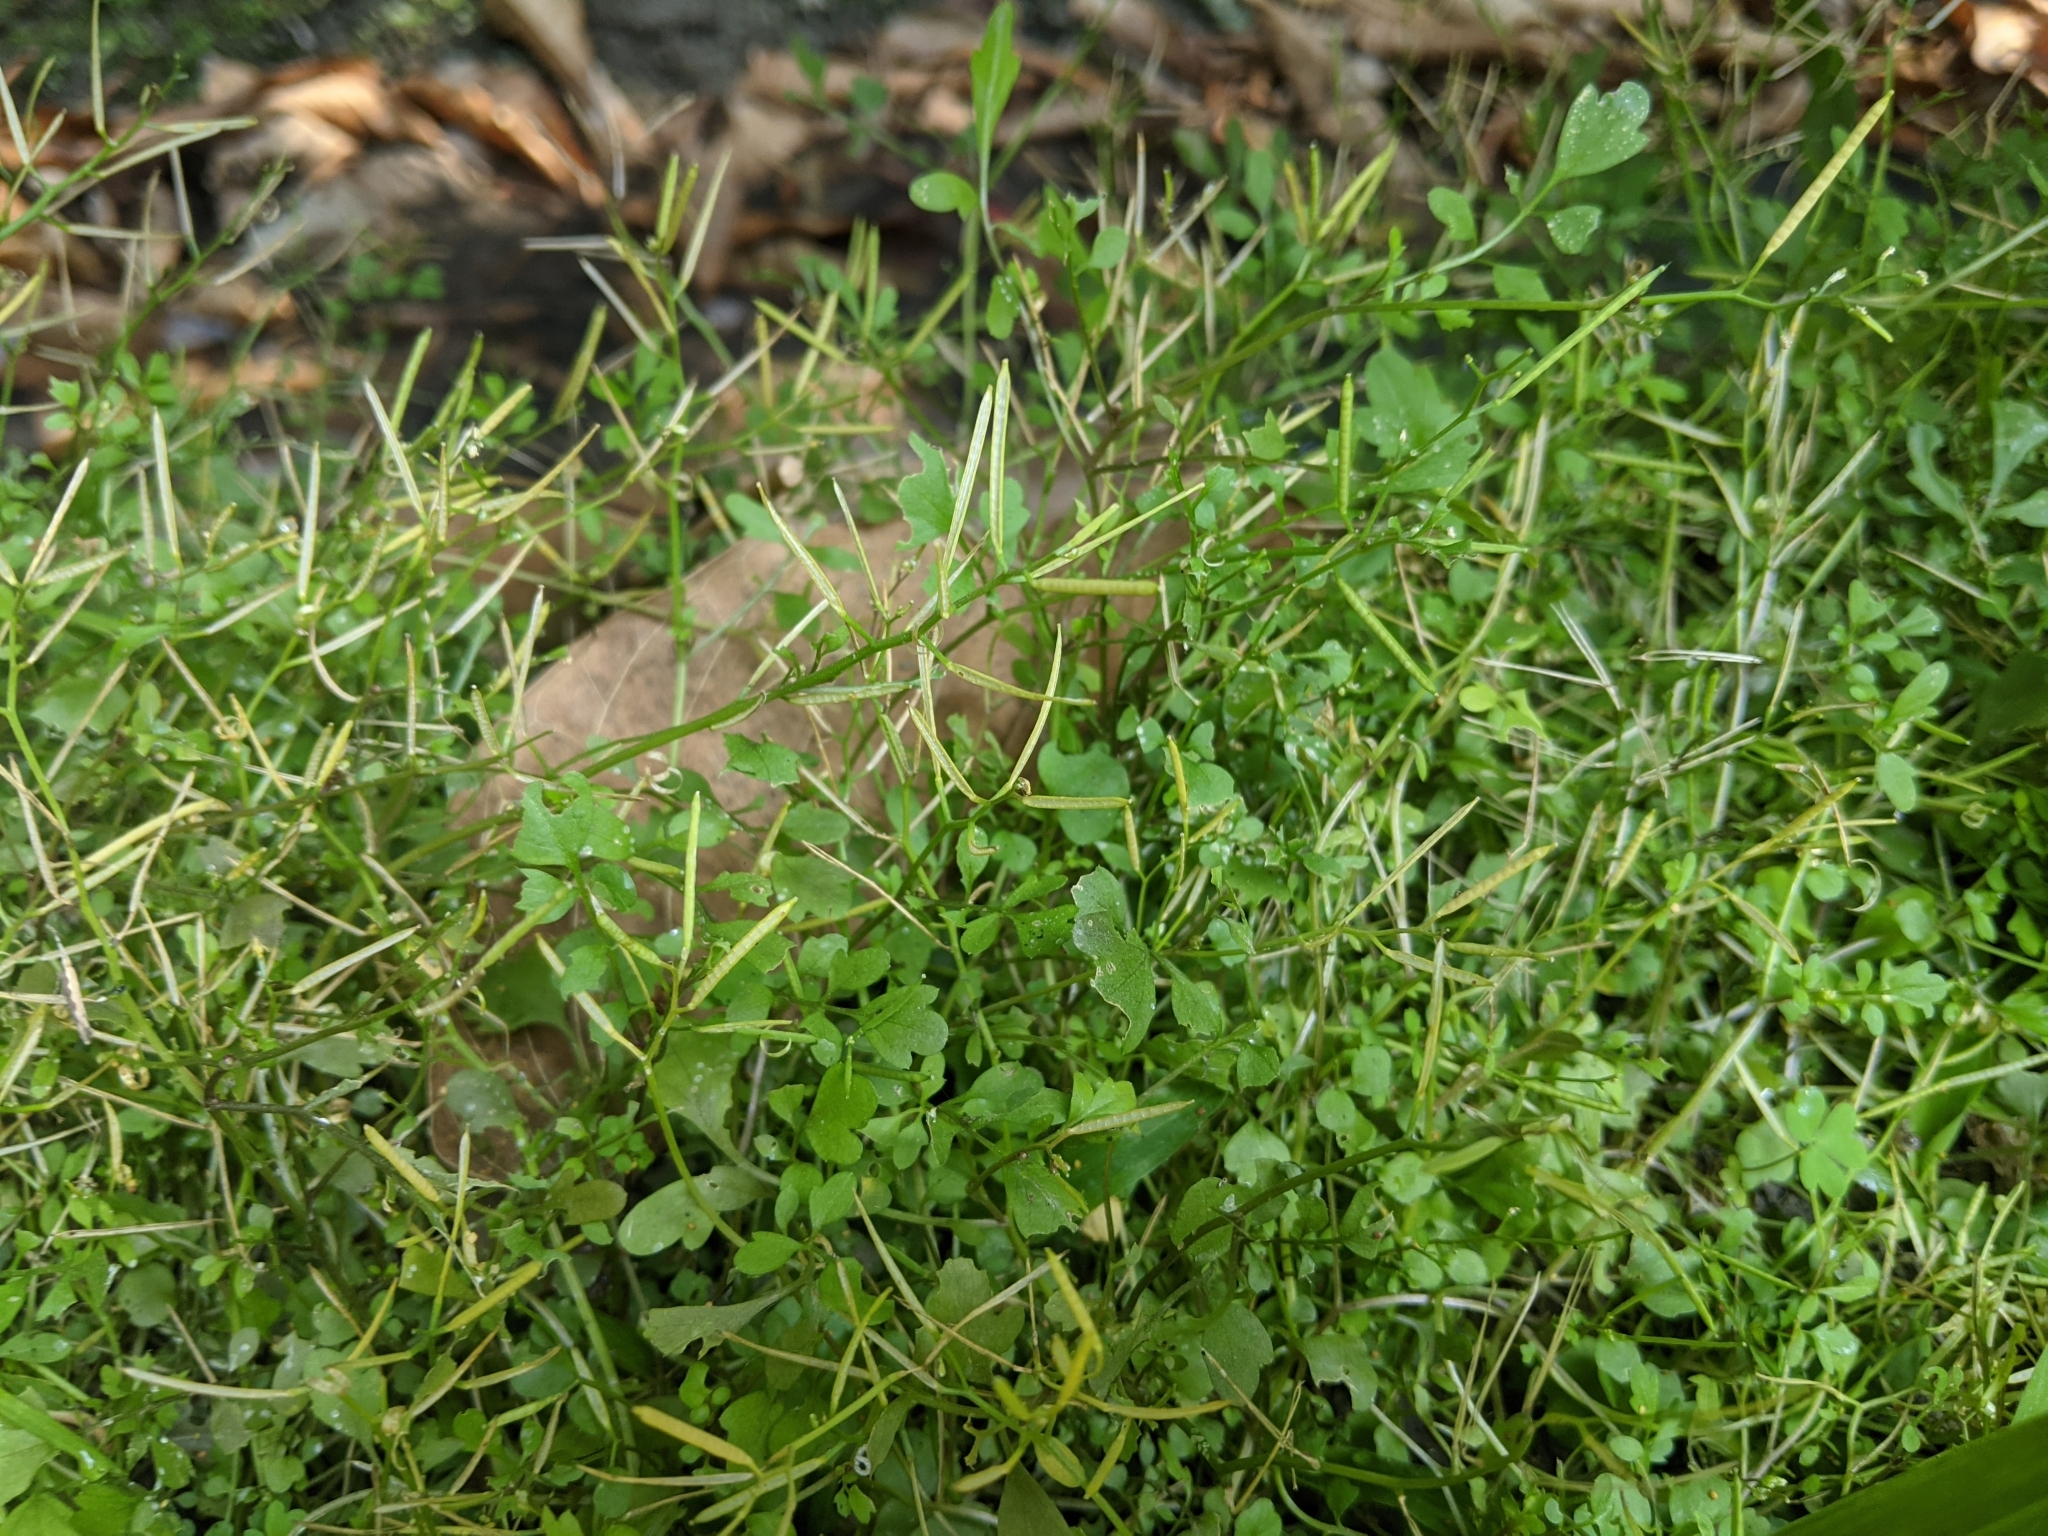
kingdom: Plantae
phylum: Tracheophyta
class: Magnoliopsida
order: Brassicales
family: Brassicaceae
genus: Cardamine
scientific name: Cardamine flexuosa
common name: Woodland bittercress
